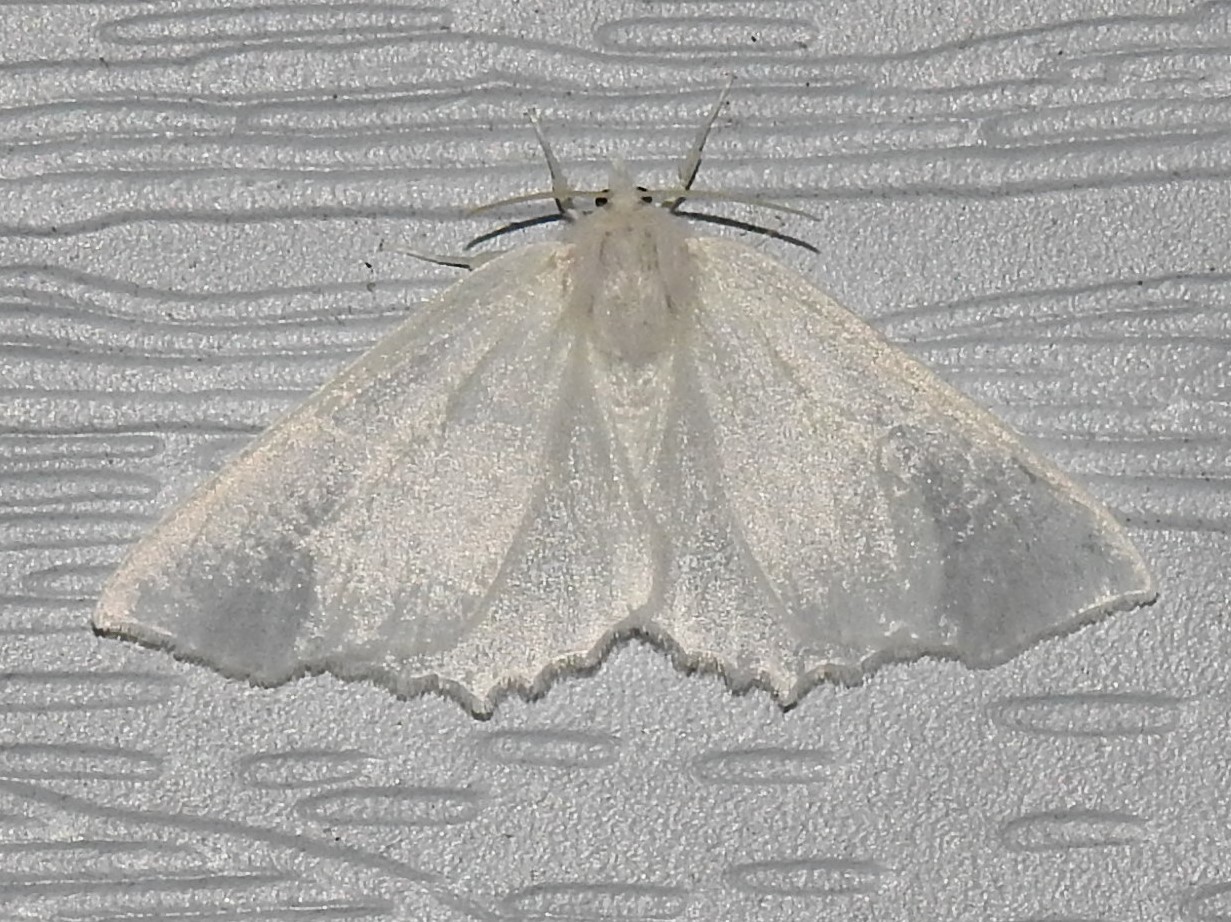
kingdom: Animalia
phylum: Arthropoda
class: Insecta
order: Lepidoptera
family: Geometridae
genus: Ennomos
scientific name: Ennomos subsignaria
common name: Elm spanworm
